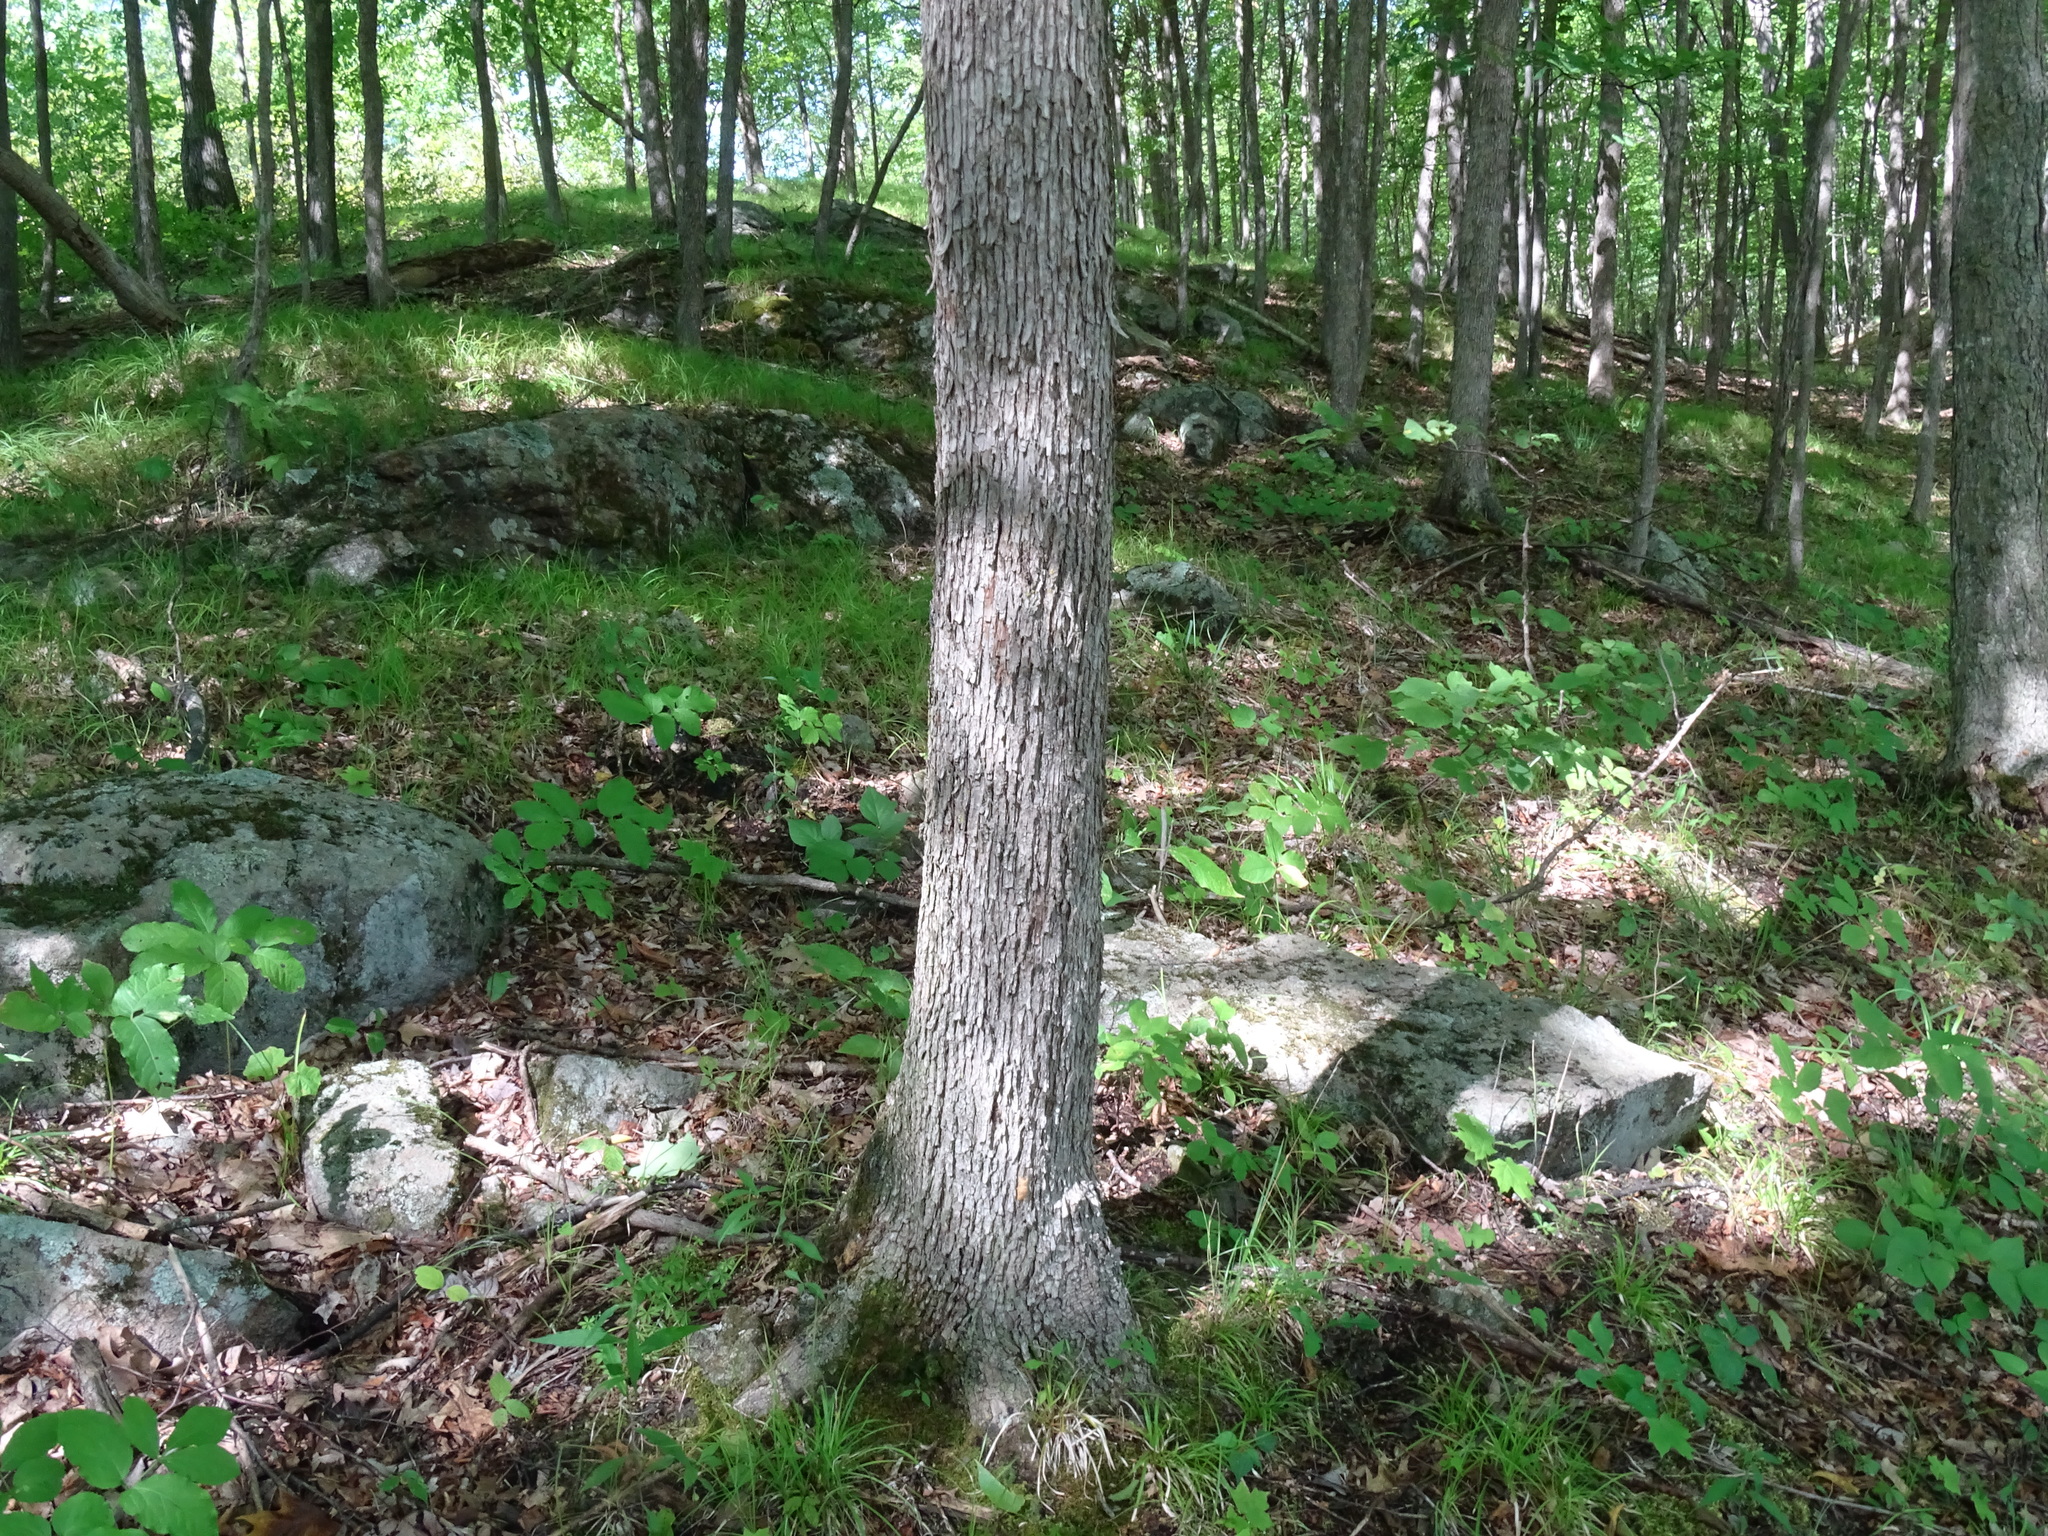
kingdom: Plantae
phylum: Tracheophyta
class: Magnoliopsida
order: Fagales
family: Betulaceae
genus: Ostrya
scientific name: Ostrya virginiana
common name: Ironwood
